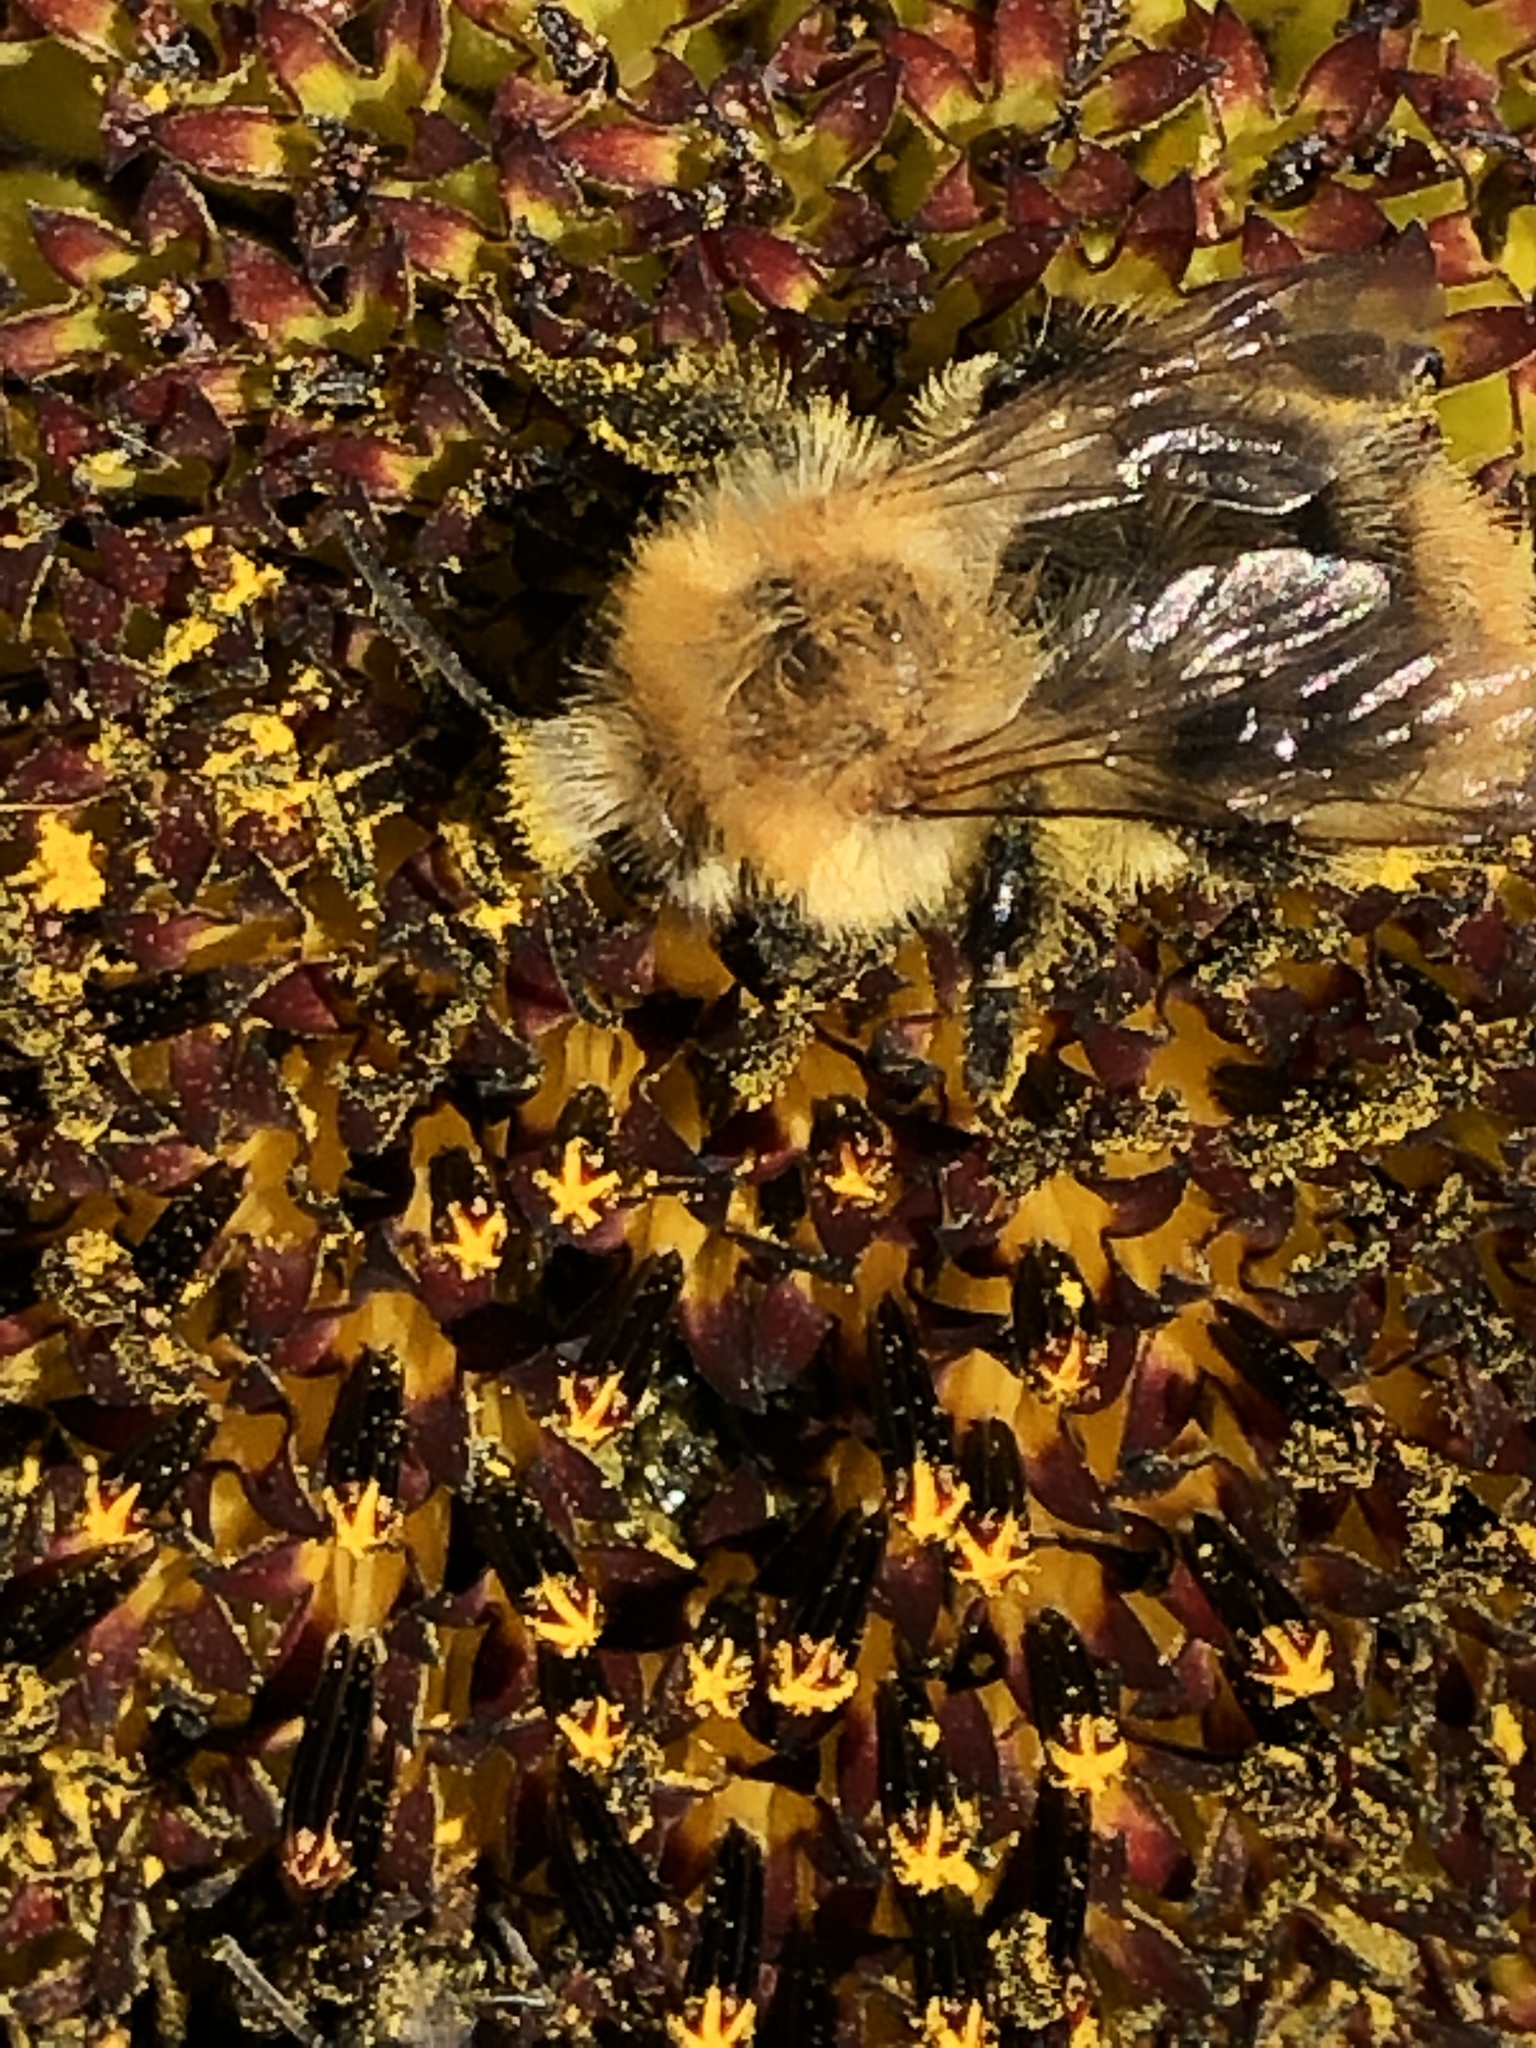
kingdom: Animalia
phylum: Arthropoda
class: Insecta
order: Hymenoptera
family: Apidae
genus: Bombus
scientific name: Bombus pascuorum
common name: Common carder bee
